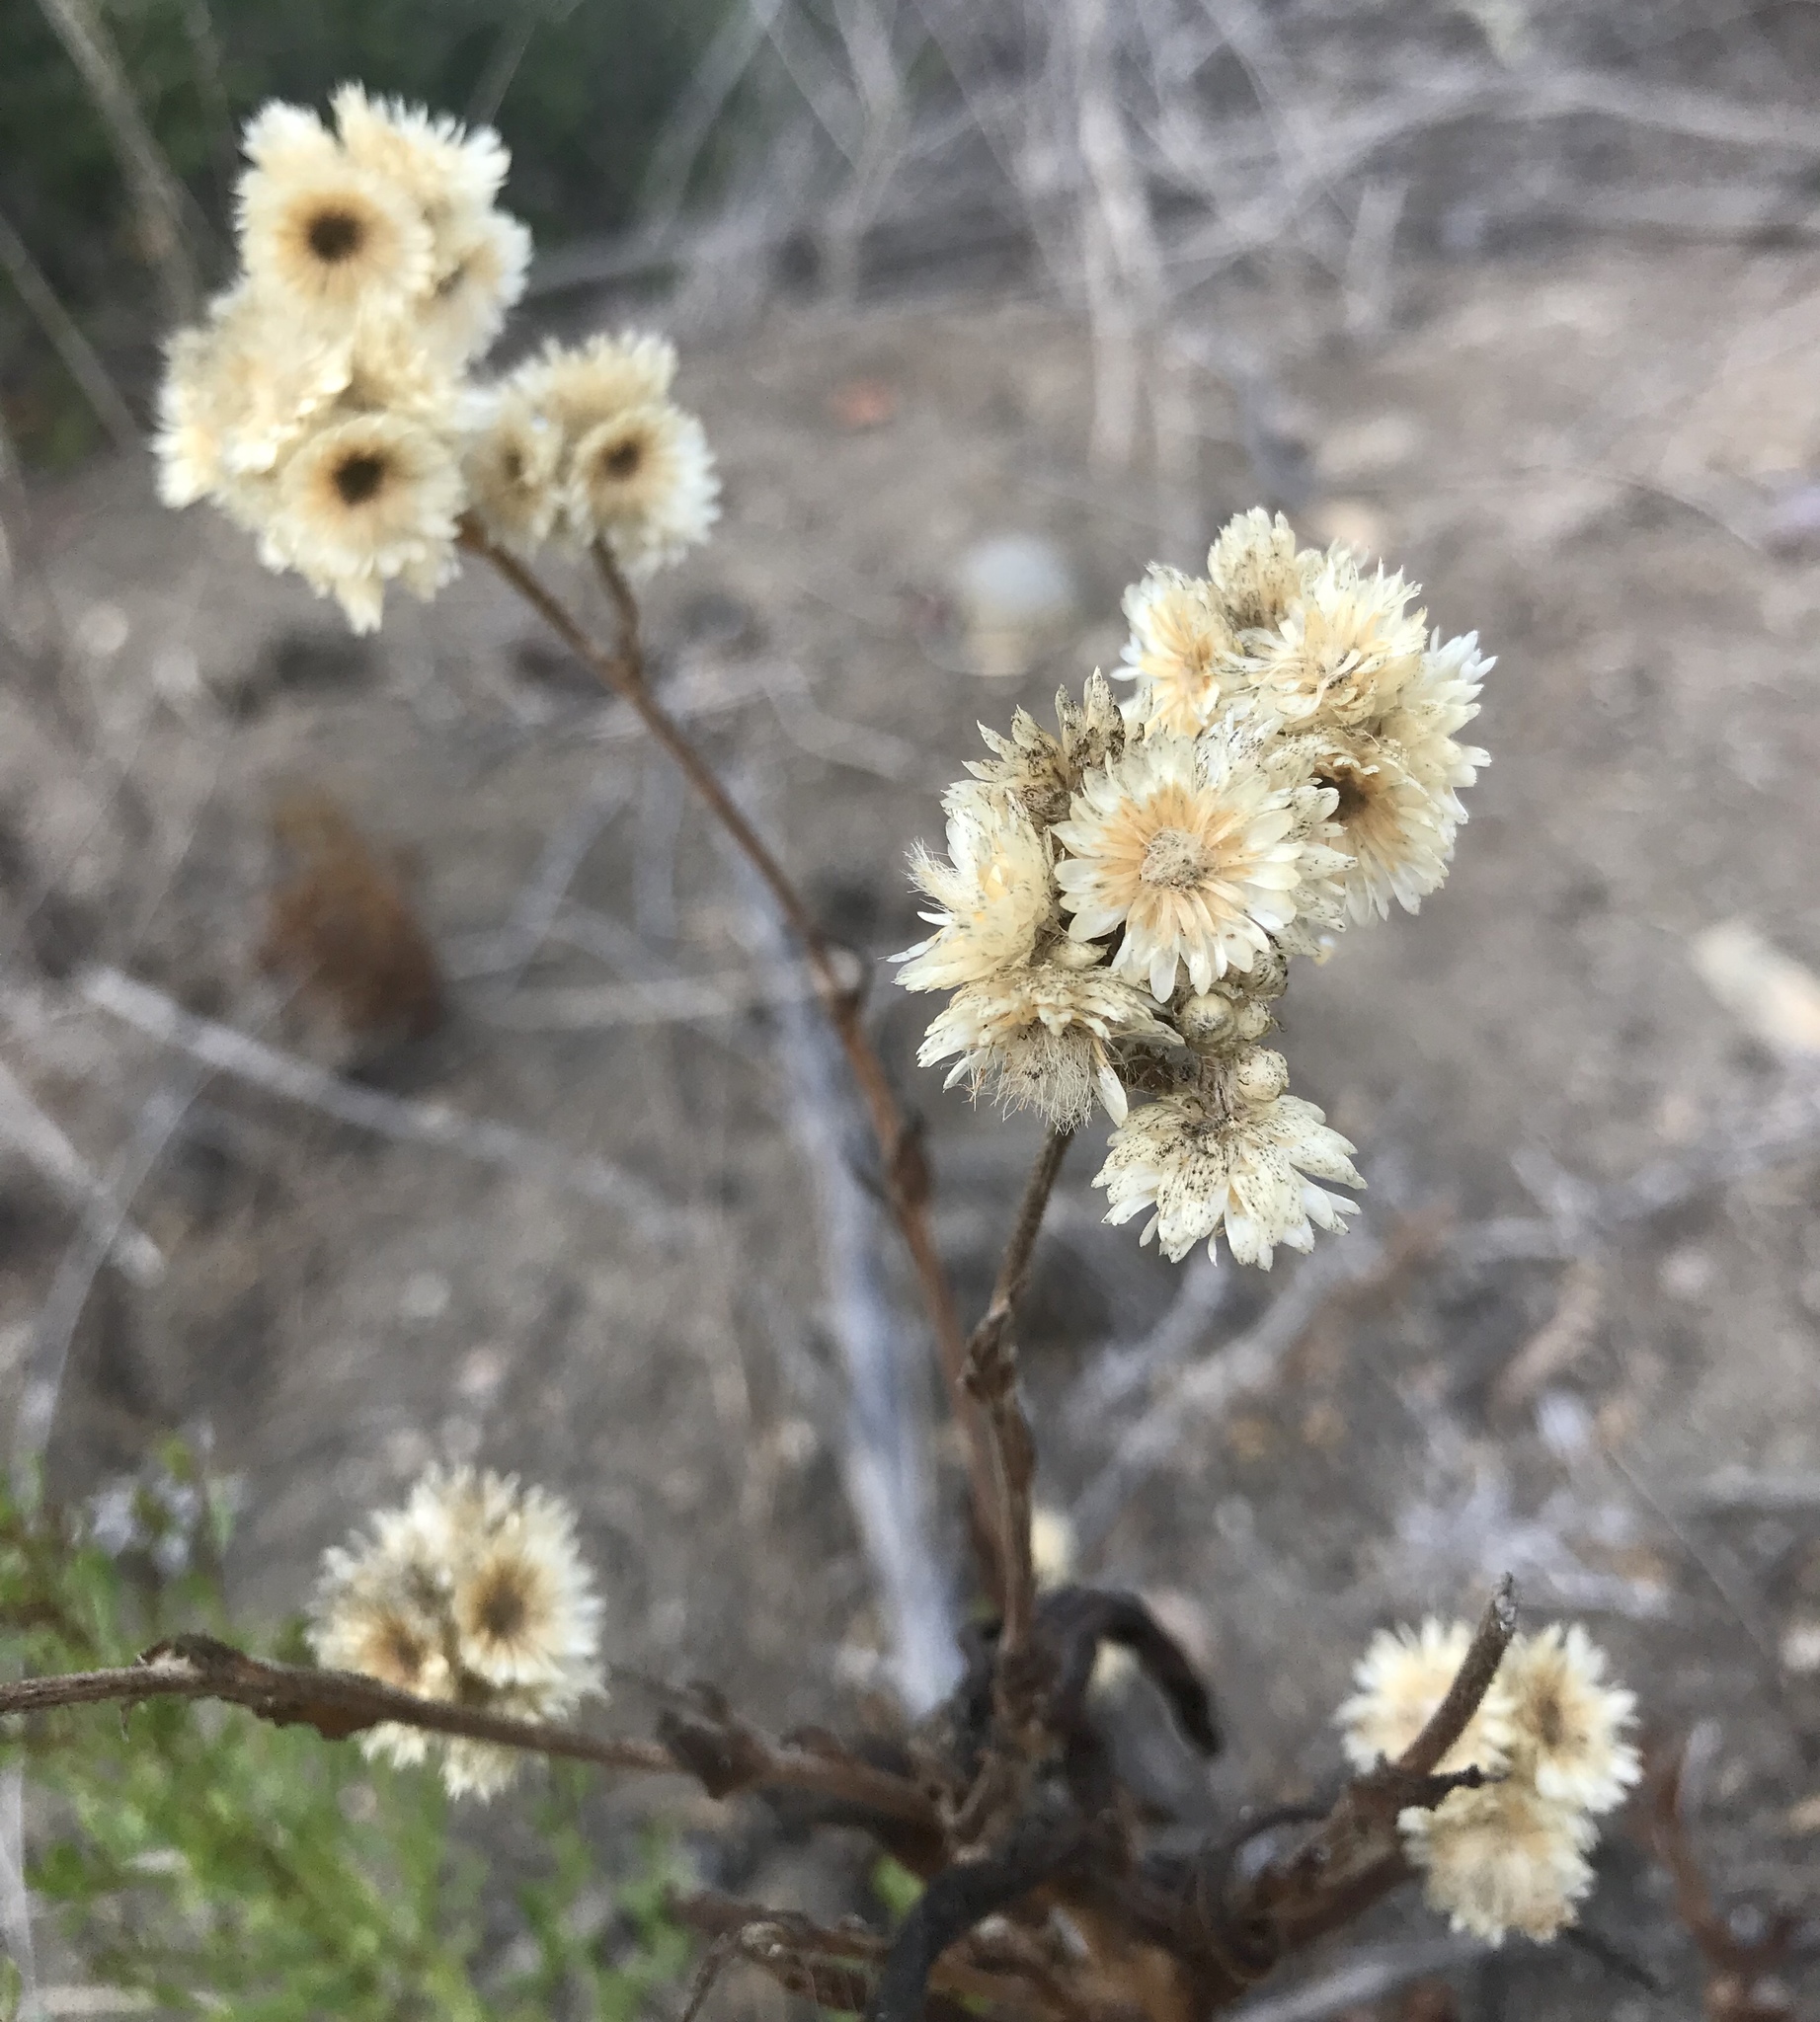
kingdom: Plantae
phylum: Tracheophyta
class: Magnoliopsida
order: Asterales
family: Asteraceae
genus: Pseudognaphalium
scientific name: Pseudognaphalium californicum
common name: California rabbit-tobacco
